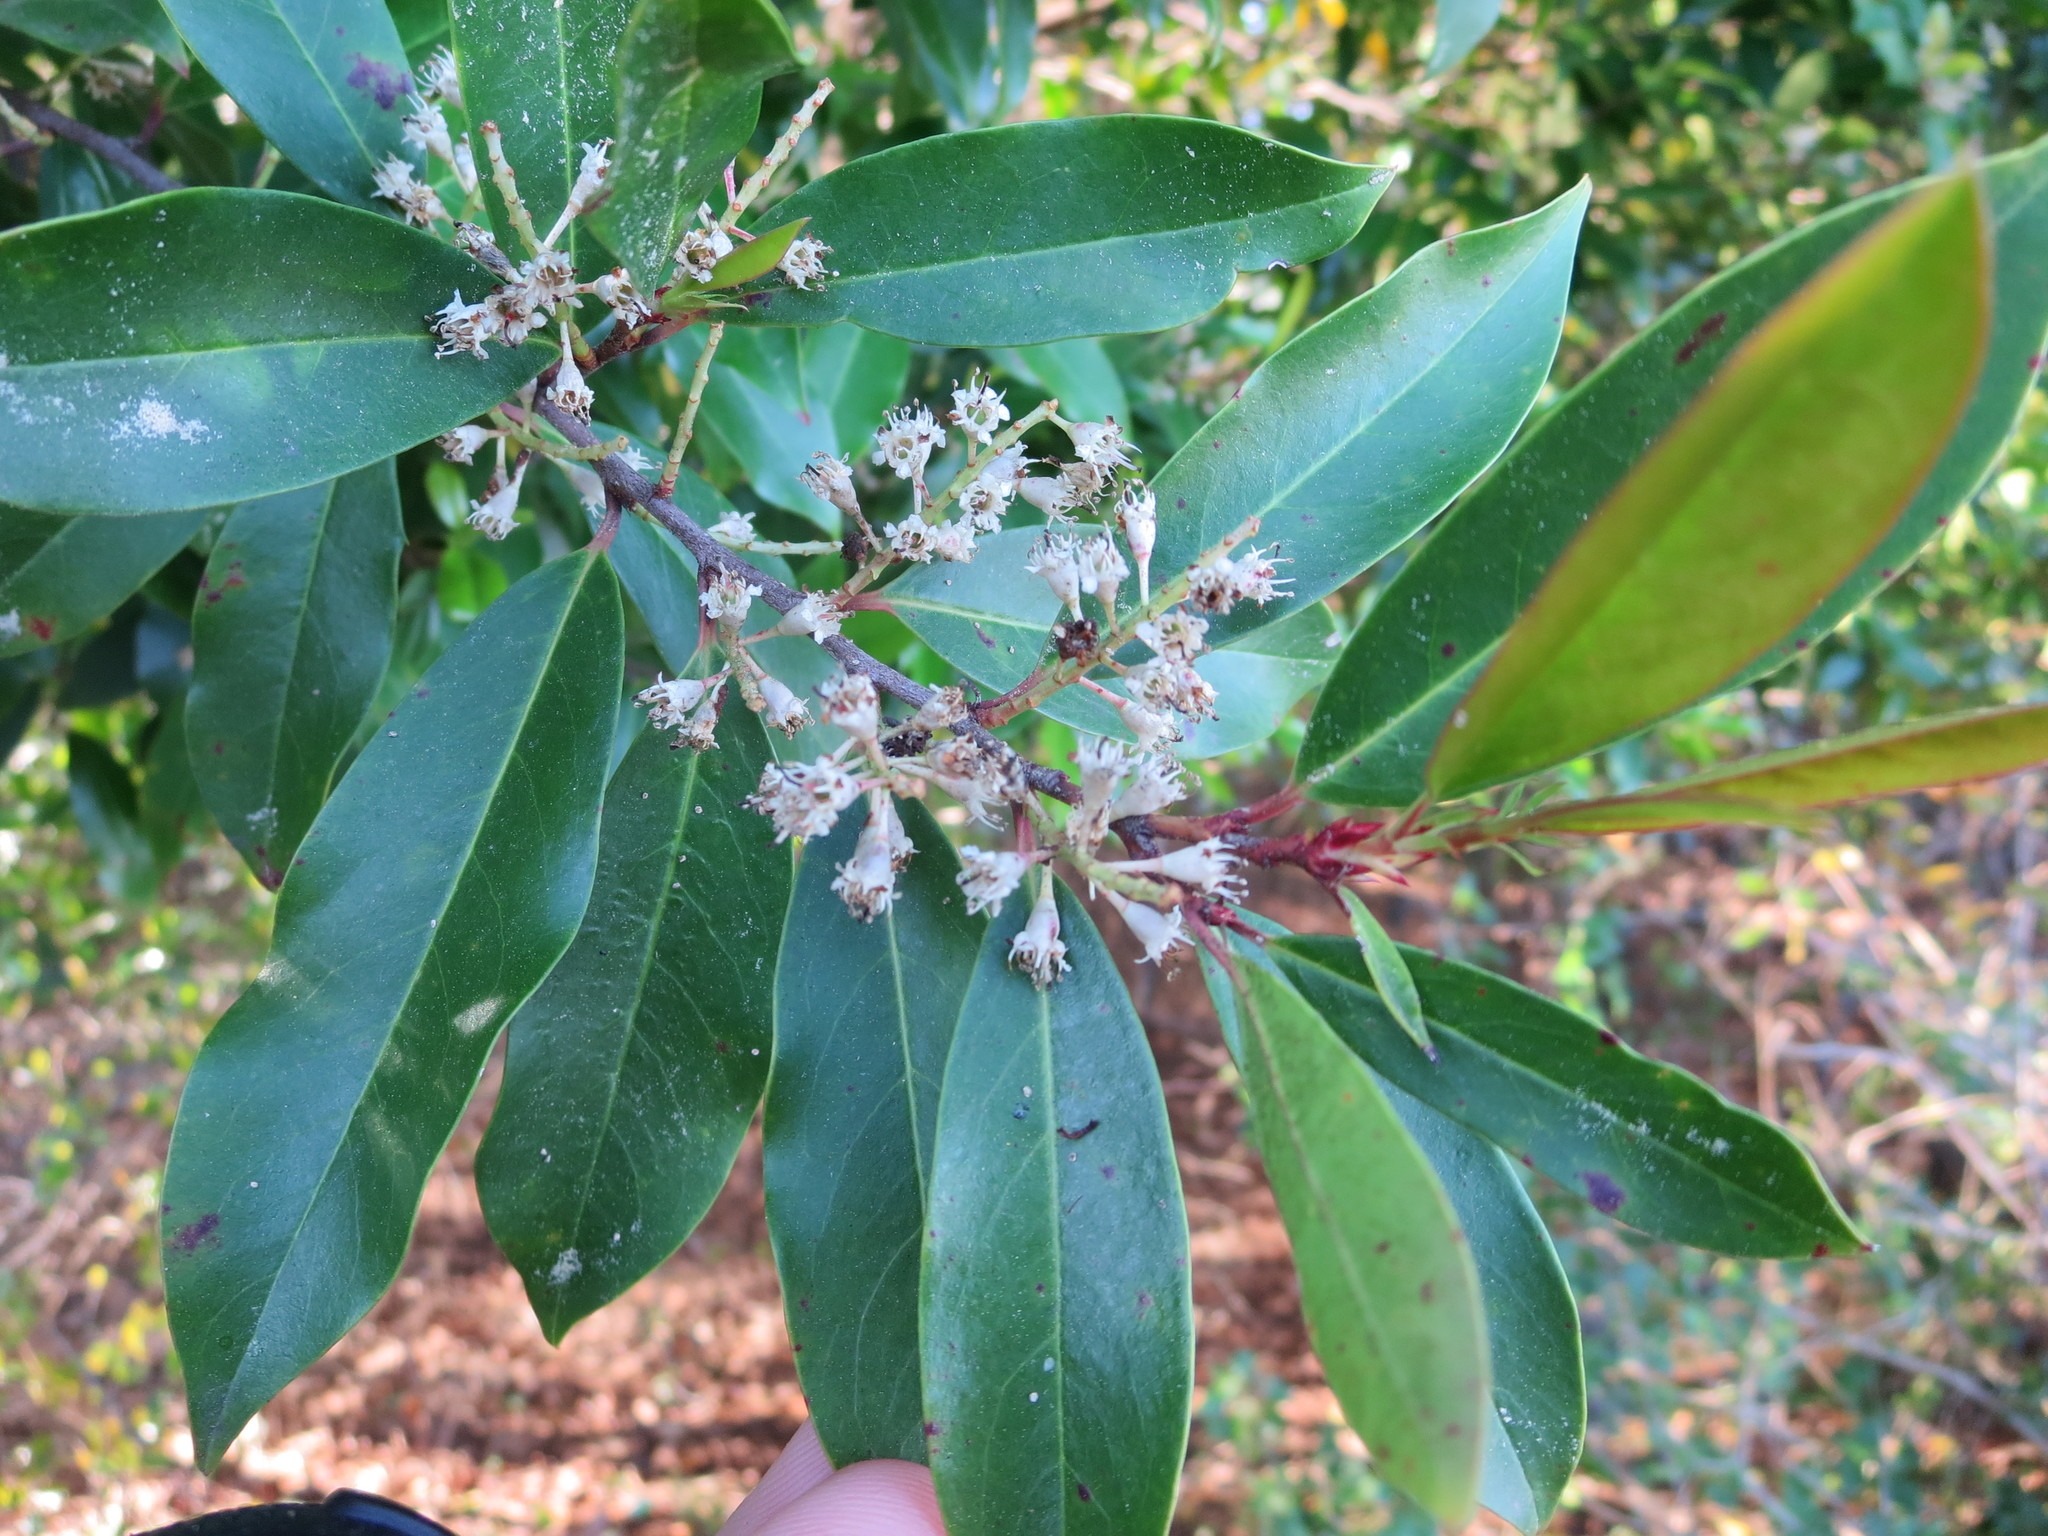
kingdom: Plantae
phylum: Tracheophyta
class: Magnoliopsida
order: Rosales
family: Rosaceae
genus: Prunus
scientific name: Prunus caroliniana
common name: Carolina laurel cherry
